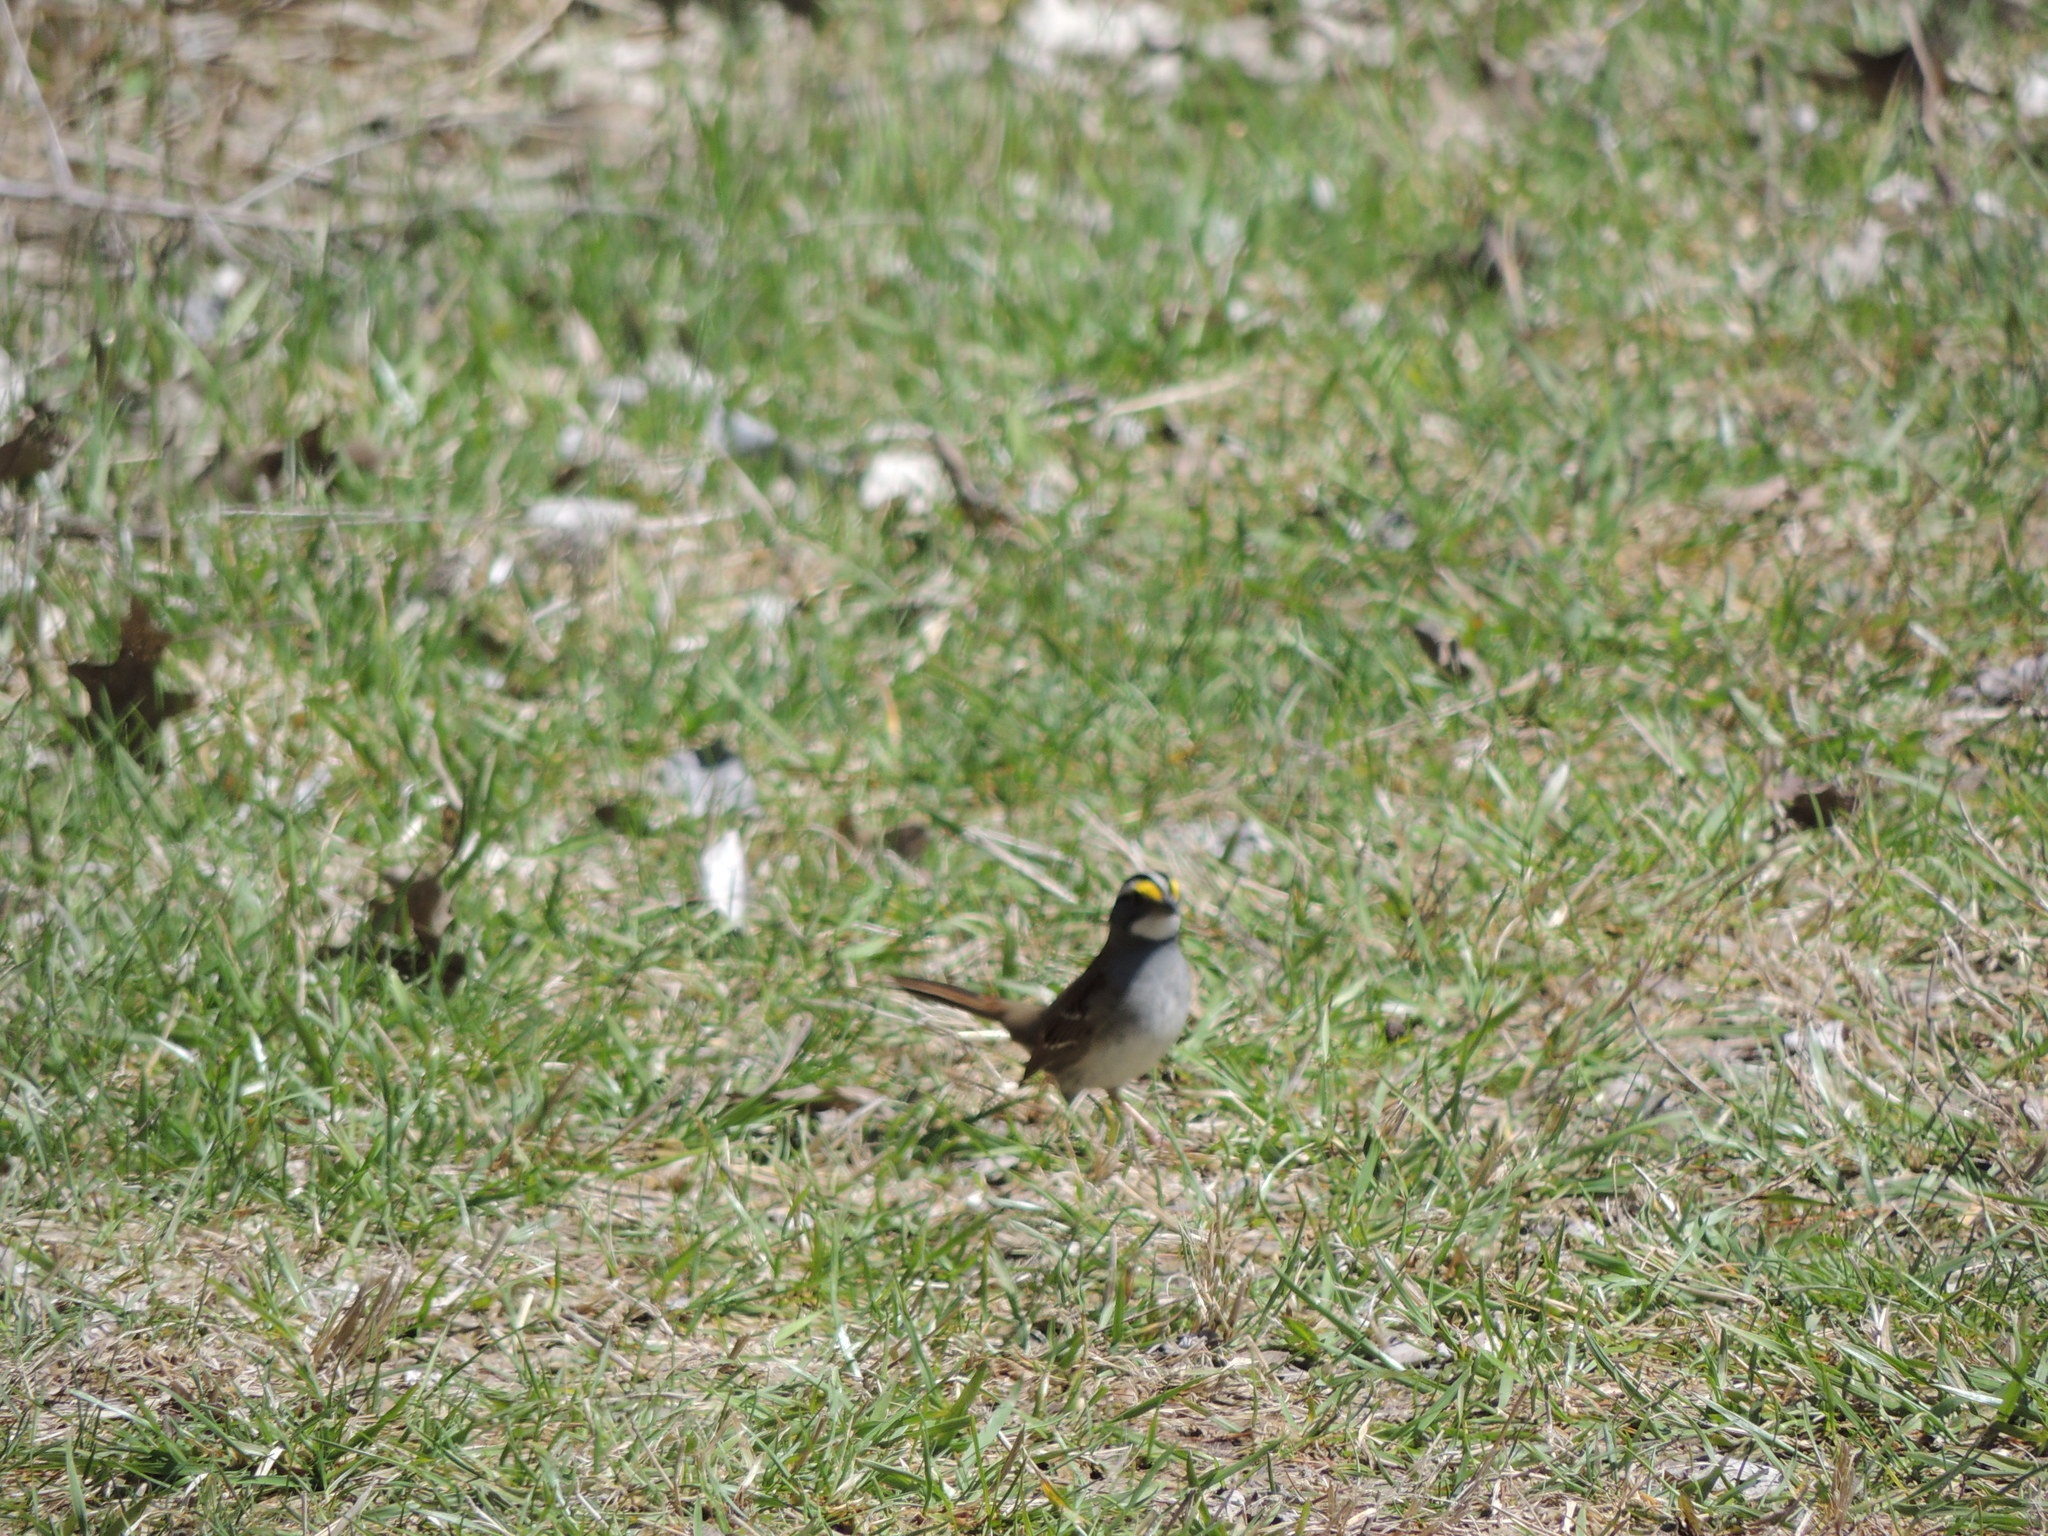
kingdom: Animalia
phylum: Chordata
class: Aves
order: Passeriformes
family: Passerellidae
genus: Zonotrichia
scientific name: Zonotrichia albicollis
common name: White-throated sparrow
